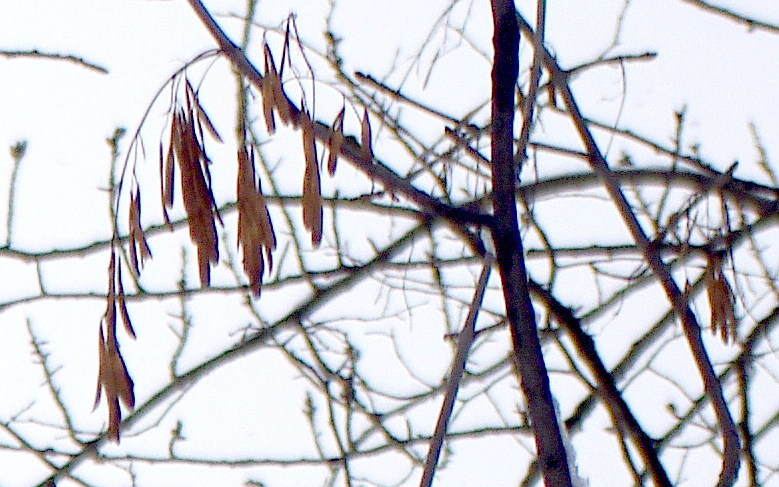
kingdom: Plantae
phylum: Tracheophyta
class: Magnoliopsida
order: Lamiales
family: Oleaceae
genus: Fraxinus
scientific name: Fraxinus pennsylvanica
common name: Green ash
